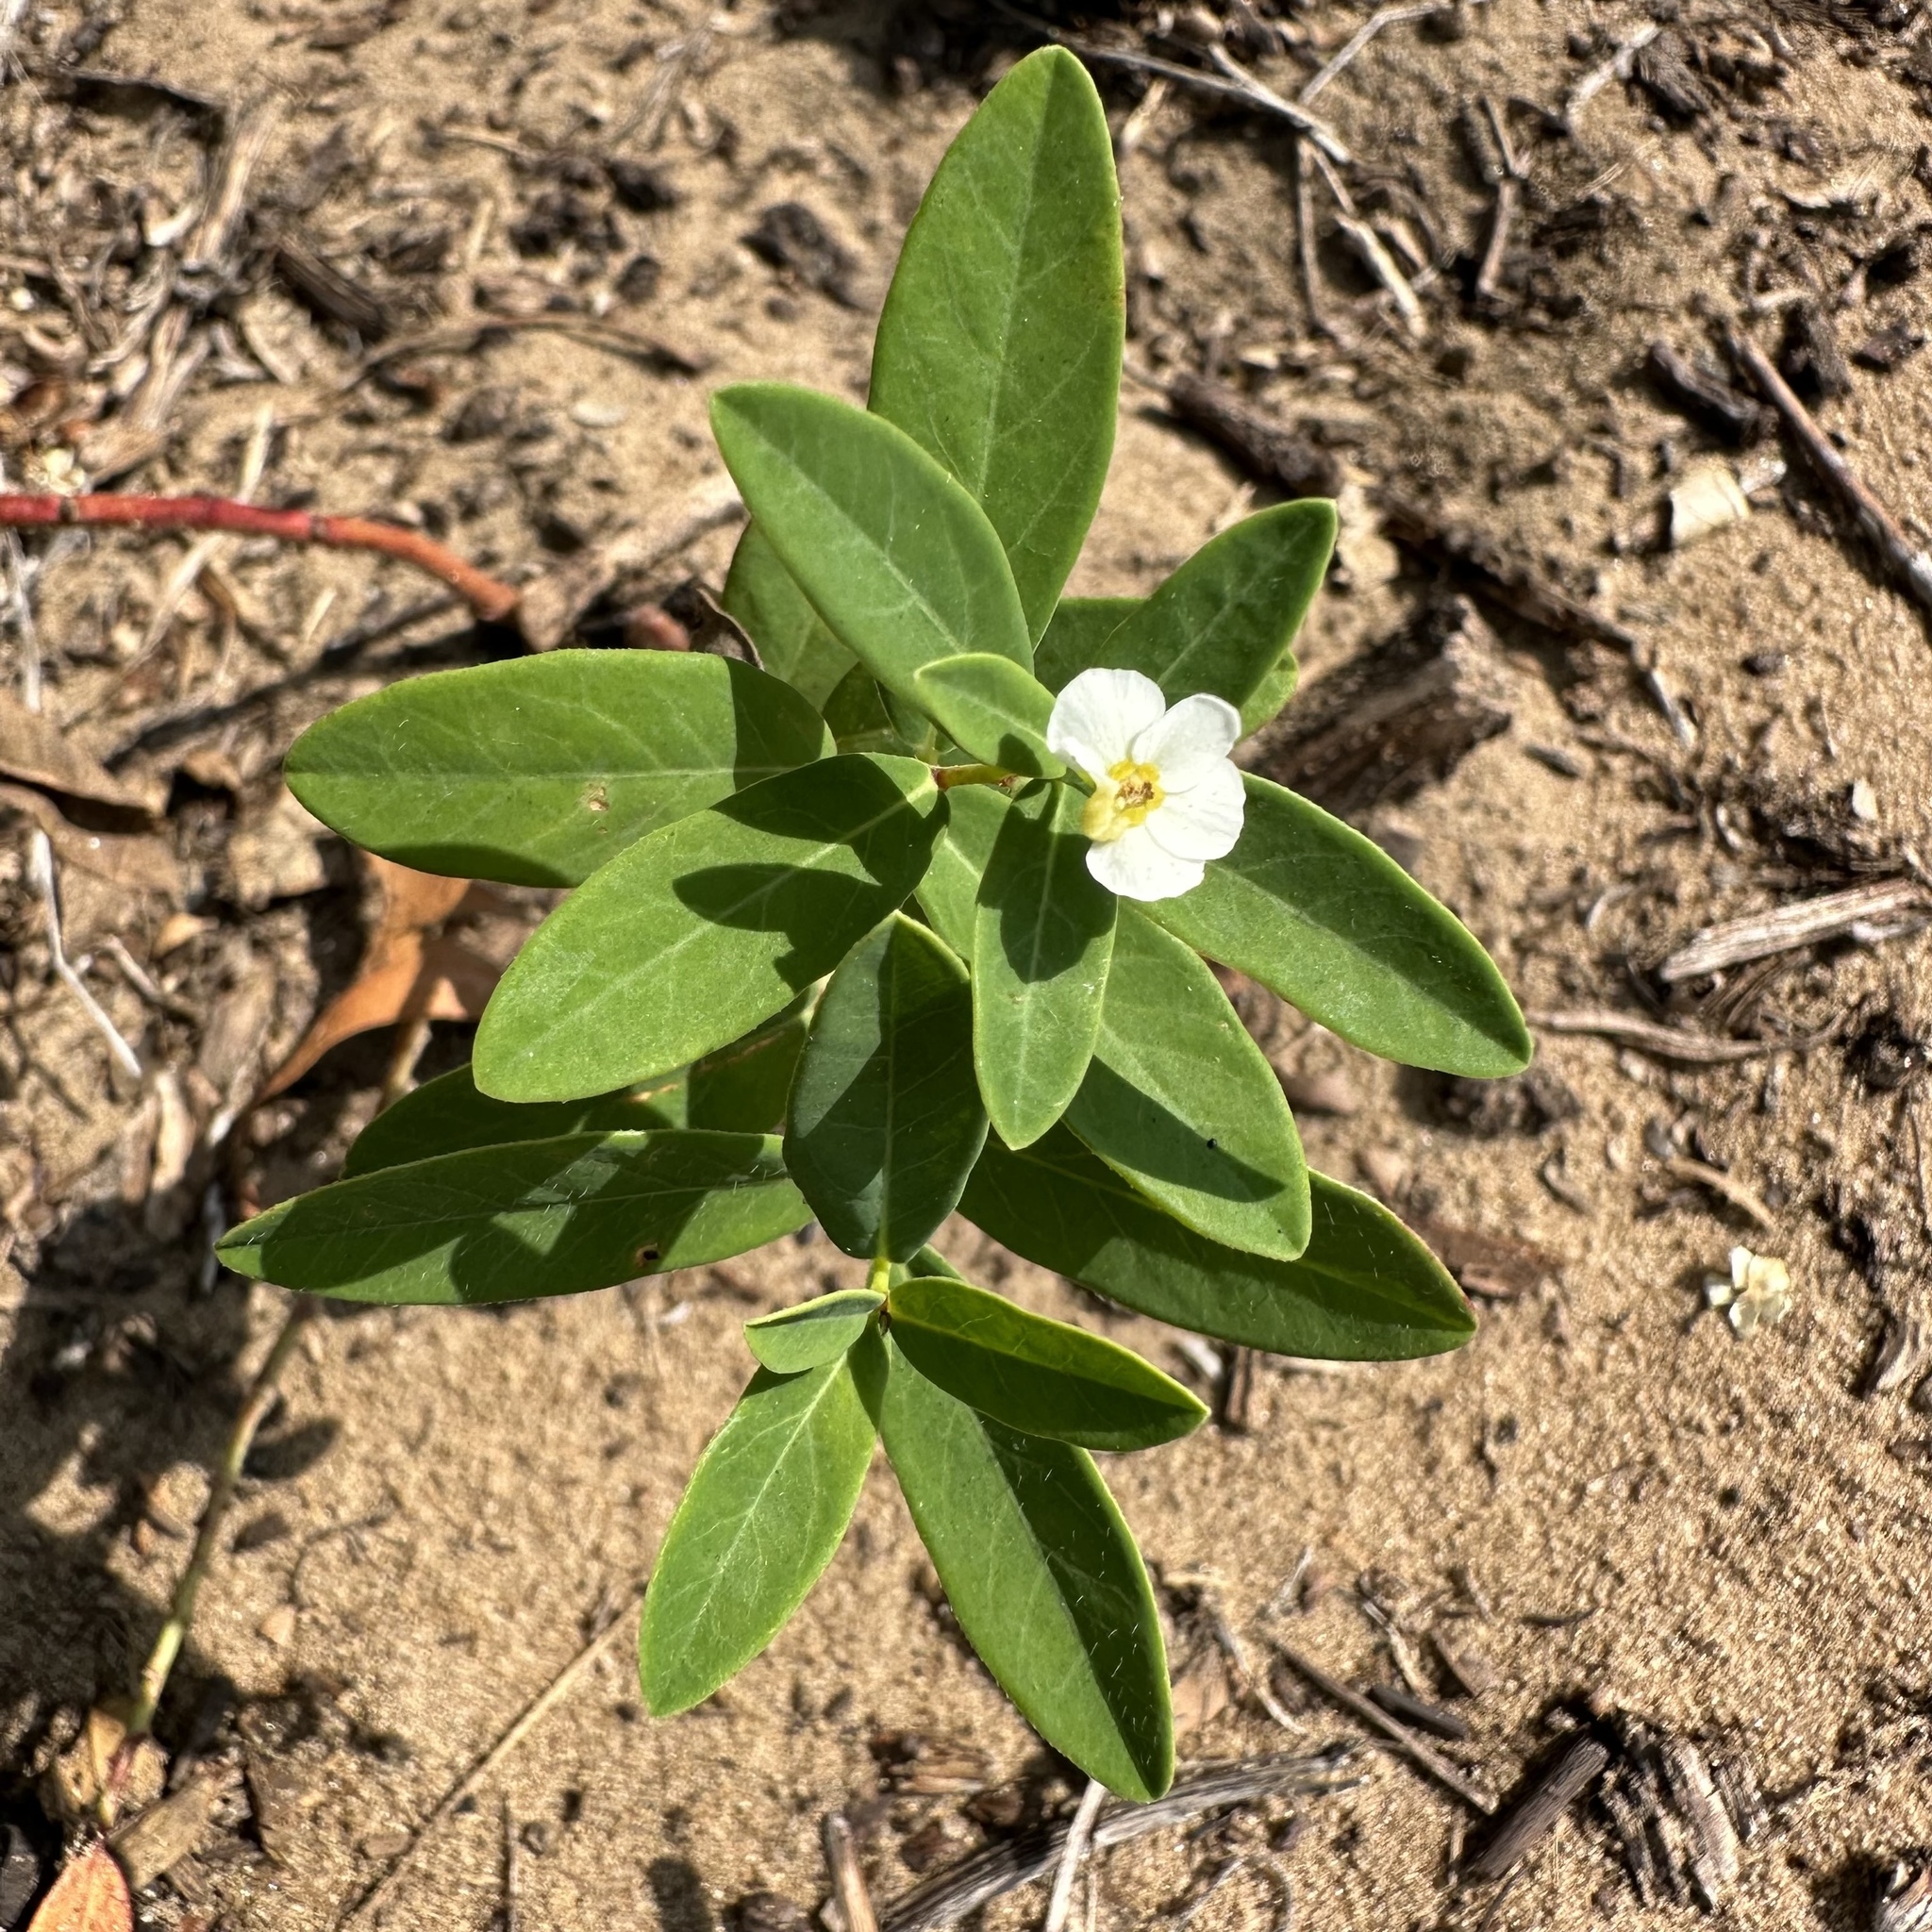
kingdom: Plantae
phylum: Tracheophyta
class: Magnoliopsida
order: Malpighiales
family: Euphorbiaceae
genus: Euphorbia
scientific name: Euphorbia corollata
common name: Flowering spurge
